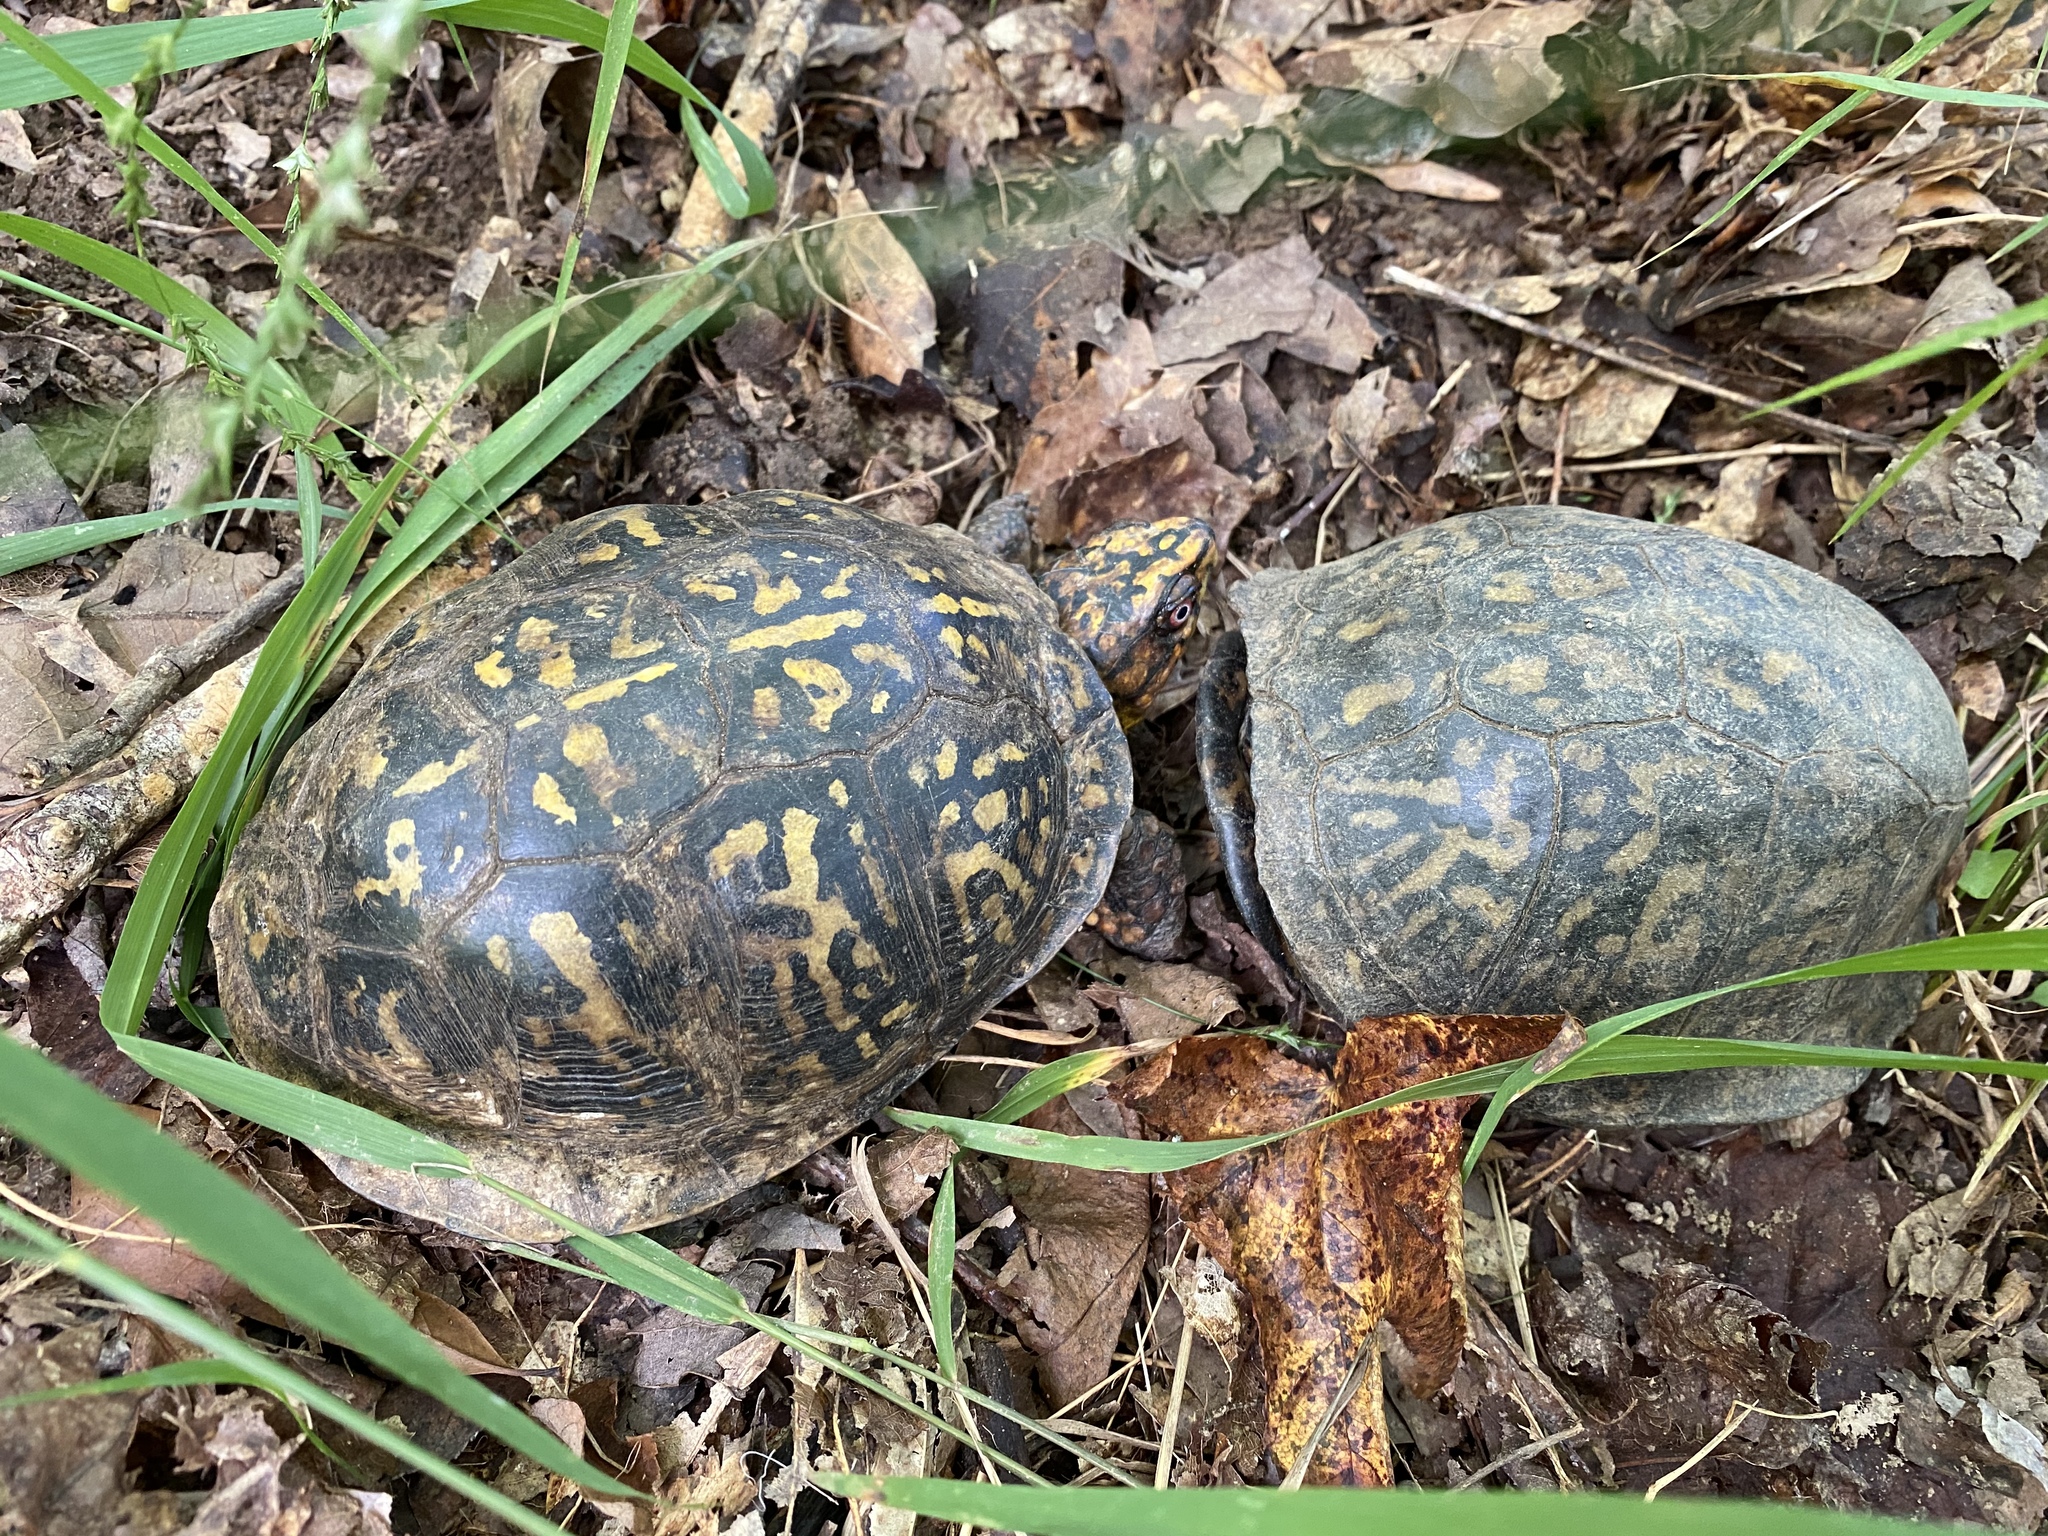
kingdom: Animalia
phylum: Chordata
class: Testudines
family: Emydidae
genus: Terrapene
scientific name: Terrapene carolina
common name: Common box turtle
